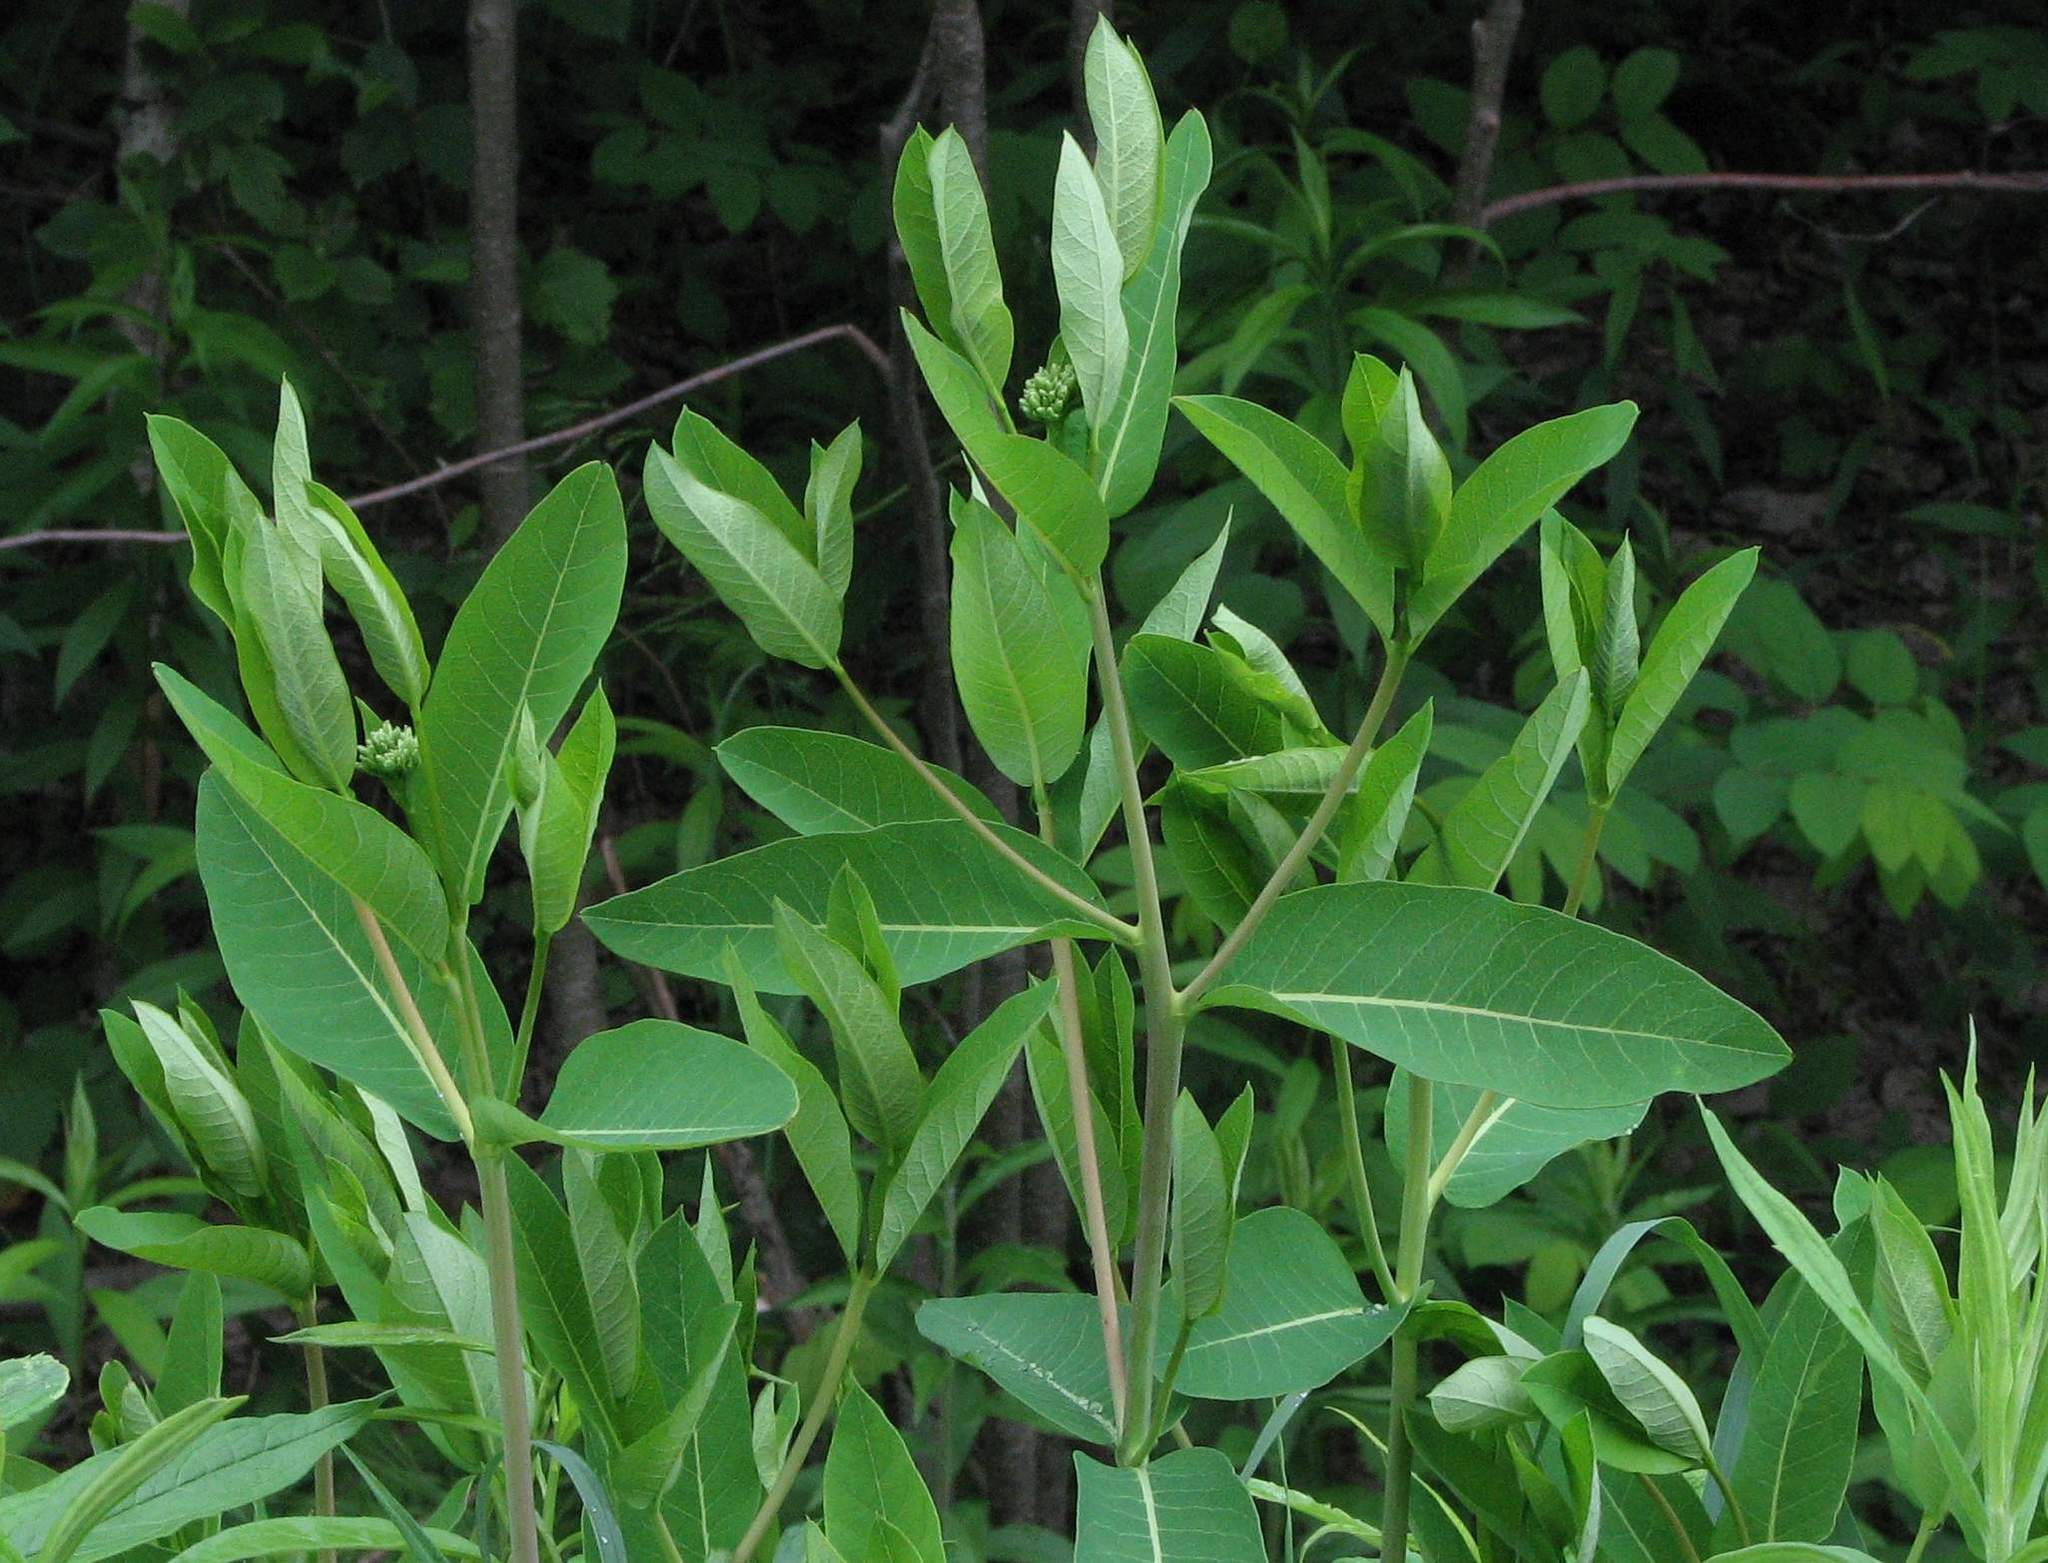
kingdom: Plantae
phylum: Tracheophyta
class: Magnoliopsida
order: Gentianales
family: Apocynaceae
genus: Apocynum
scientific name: Apocynum cannabinum
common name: Hemp dogbane
